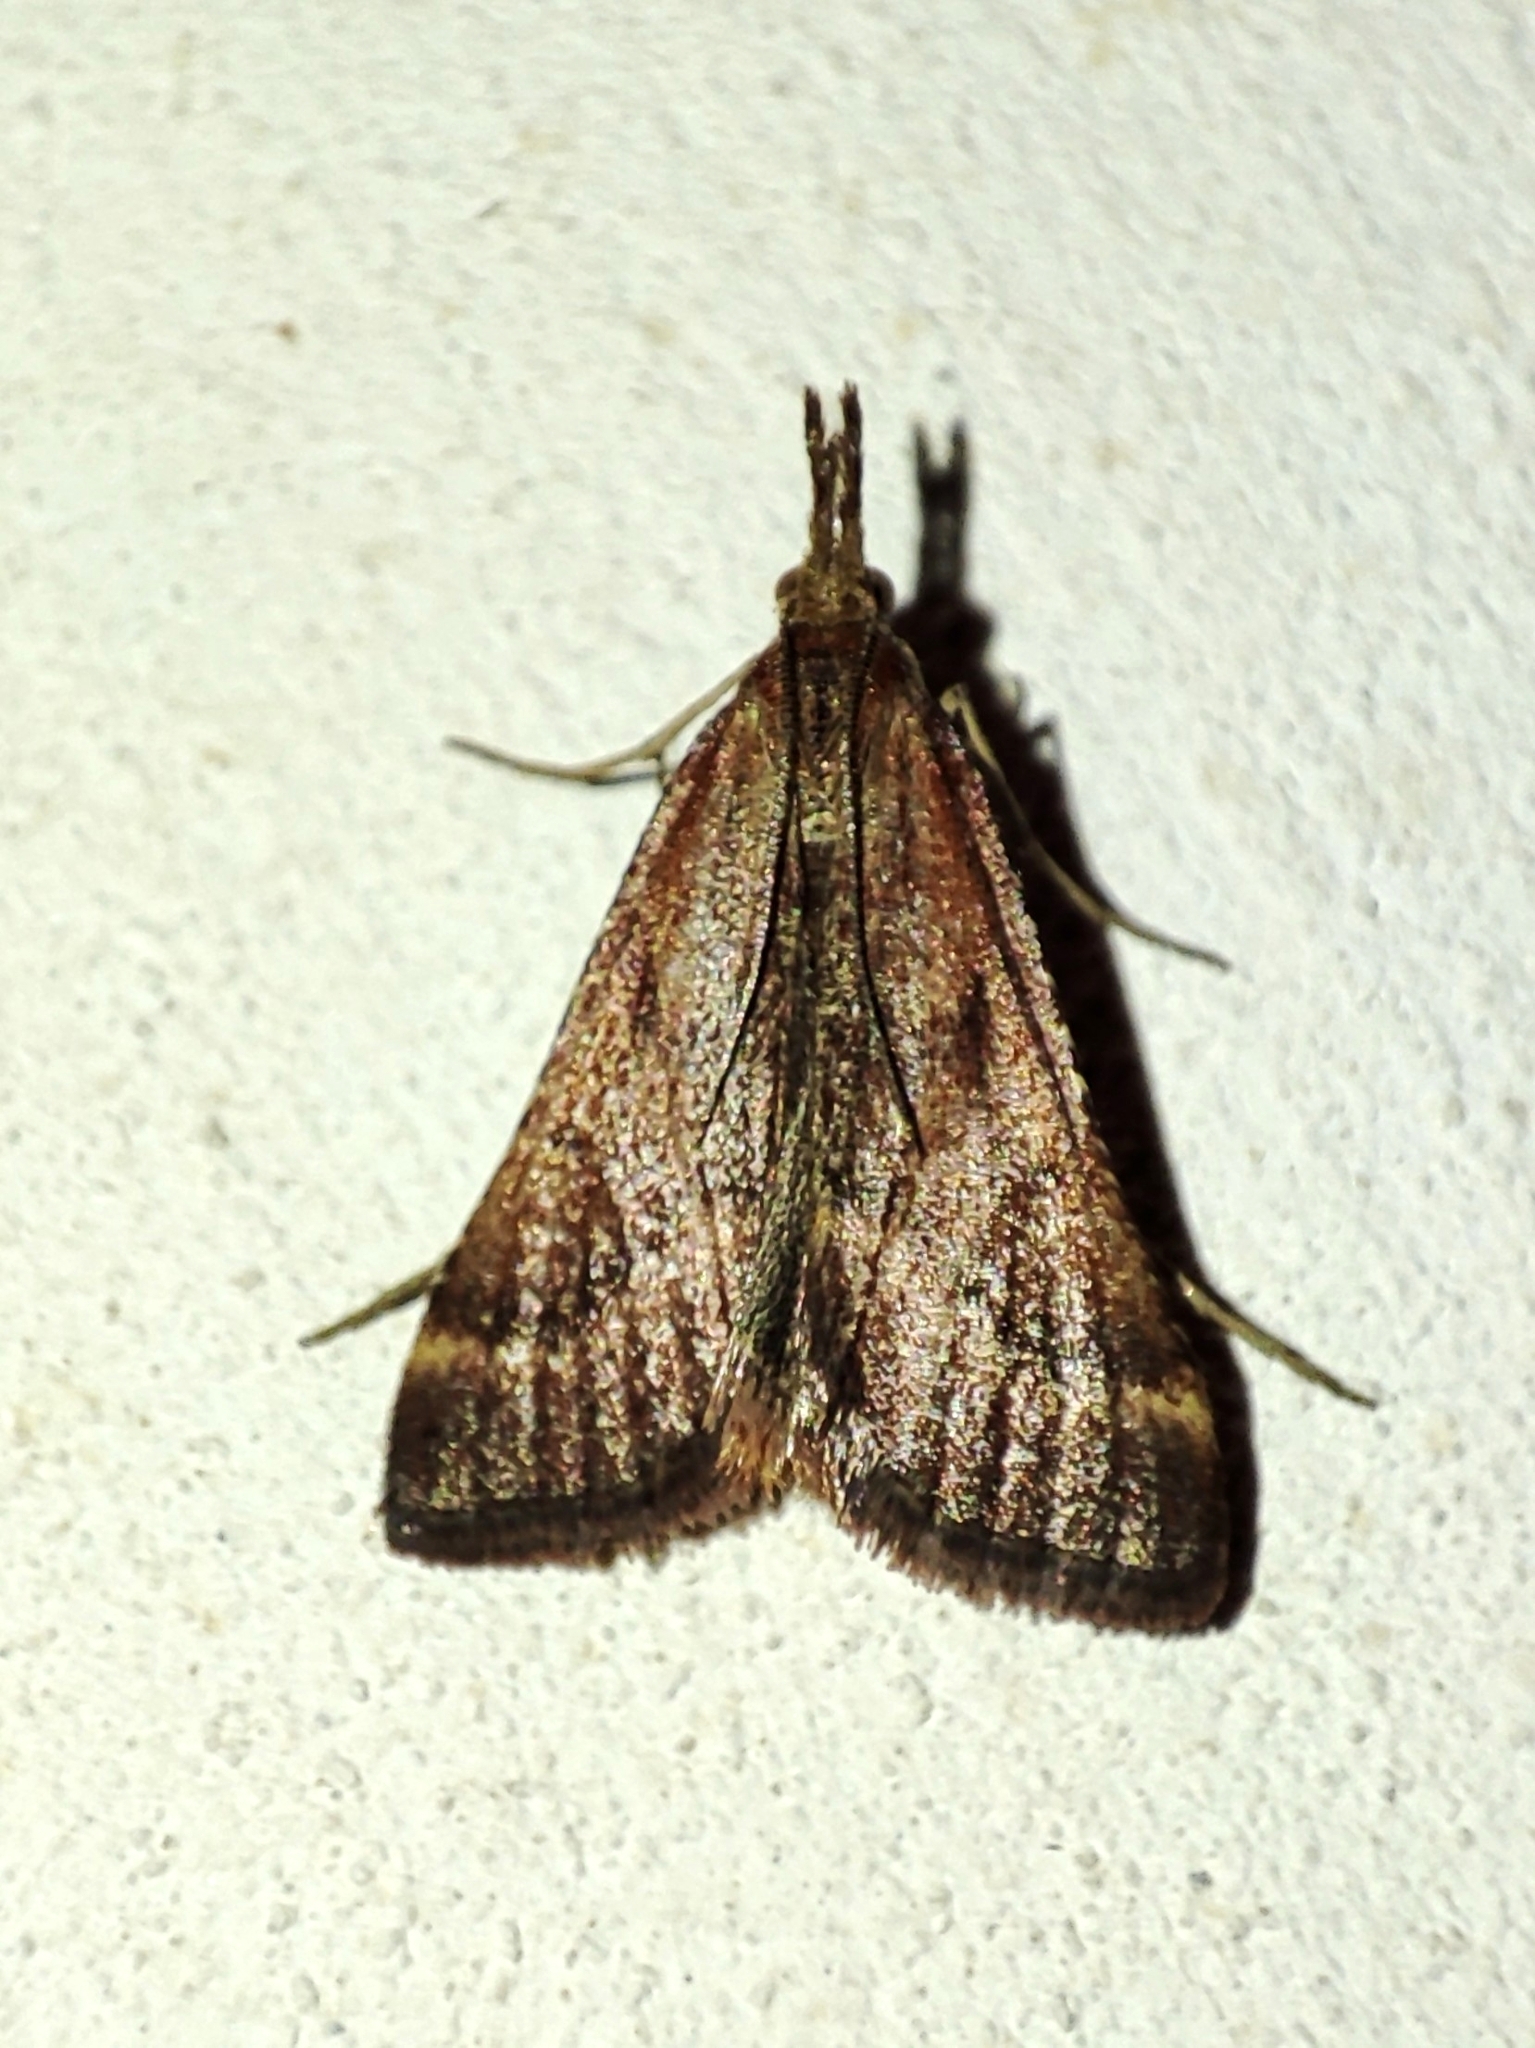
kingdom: Animalia
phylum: Arthropoda
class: Insecta
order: Lepidoptera
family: Pyralidae
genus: Synaphe
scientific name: Synaphe punctalis
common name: Long-legged tabby
